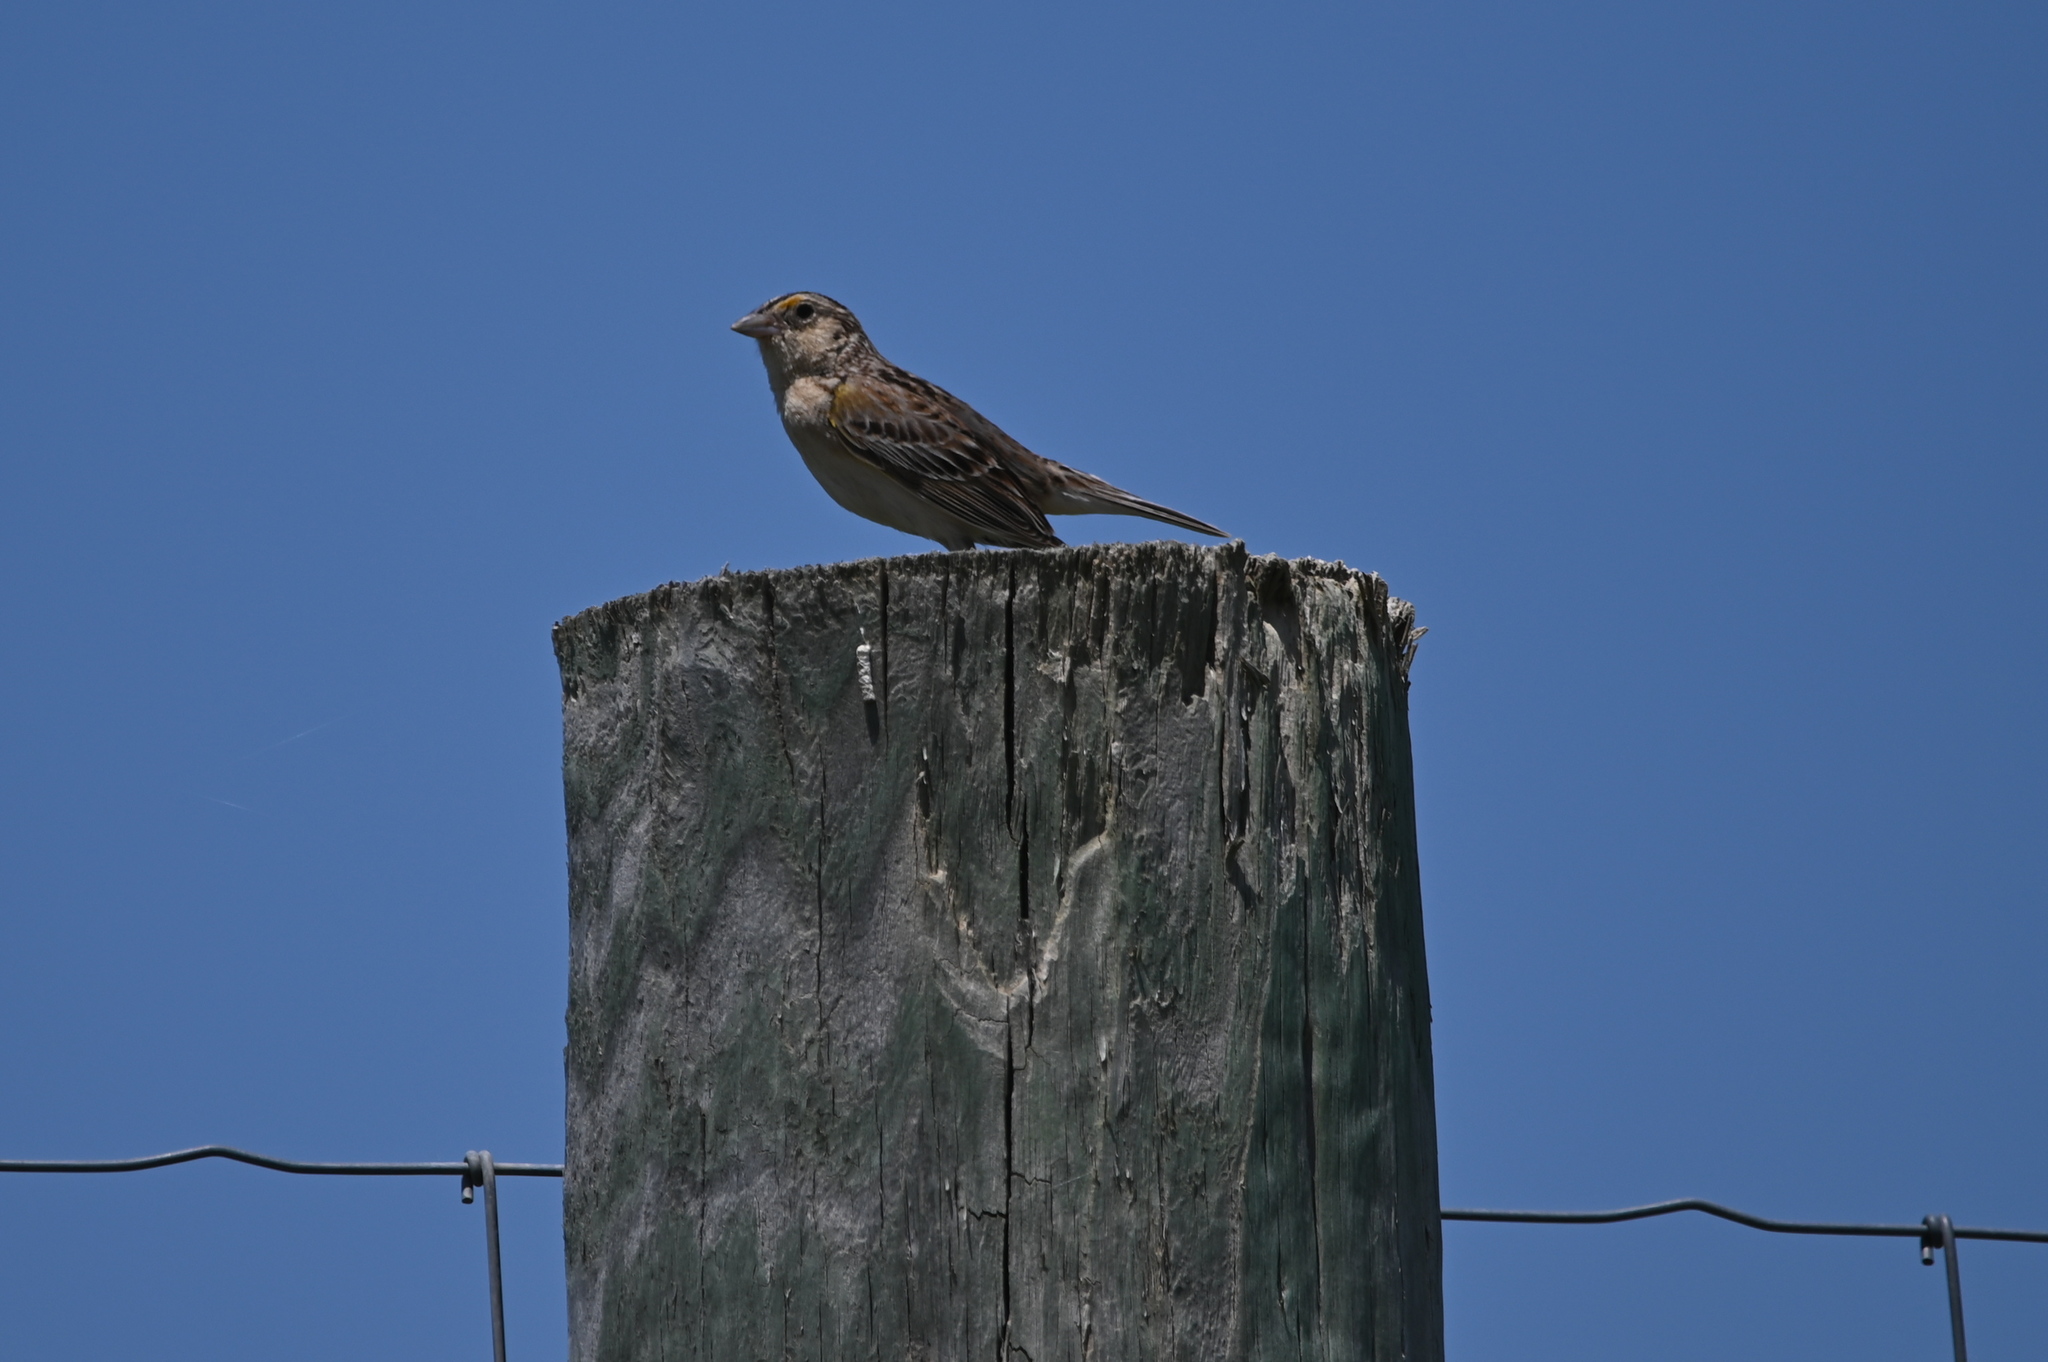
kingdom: Animalia
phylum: Chordata
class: Aves
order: Passeriformes
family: Passerellidae
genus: Ammodramus
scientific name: Ammodramus savannarum
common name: Grasshopper sparrow
